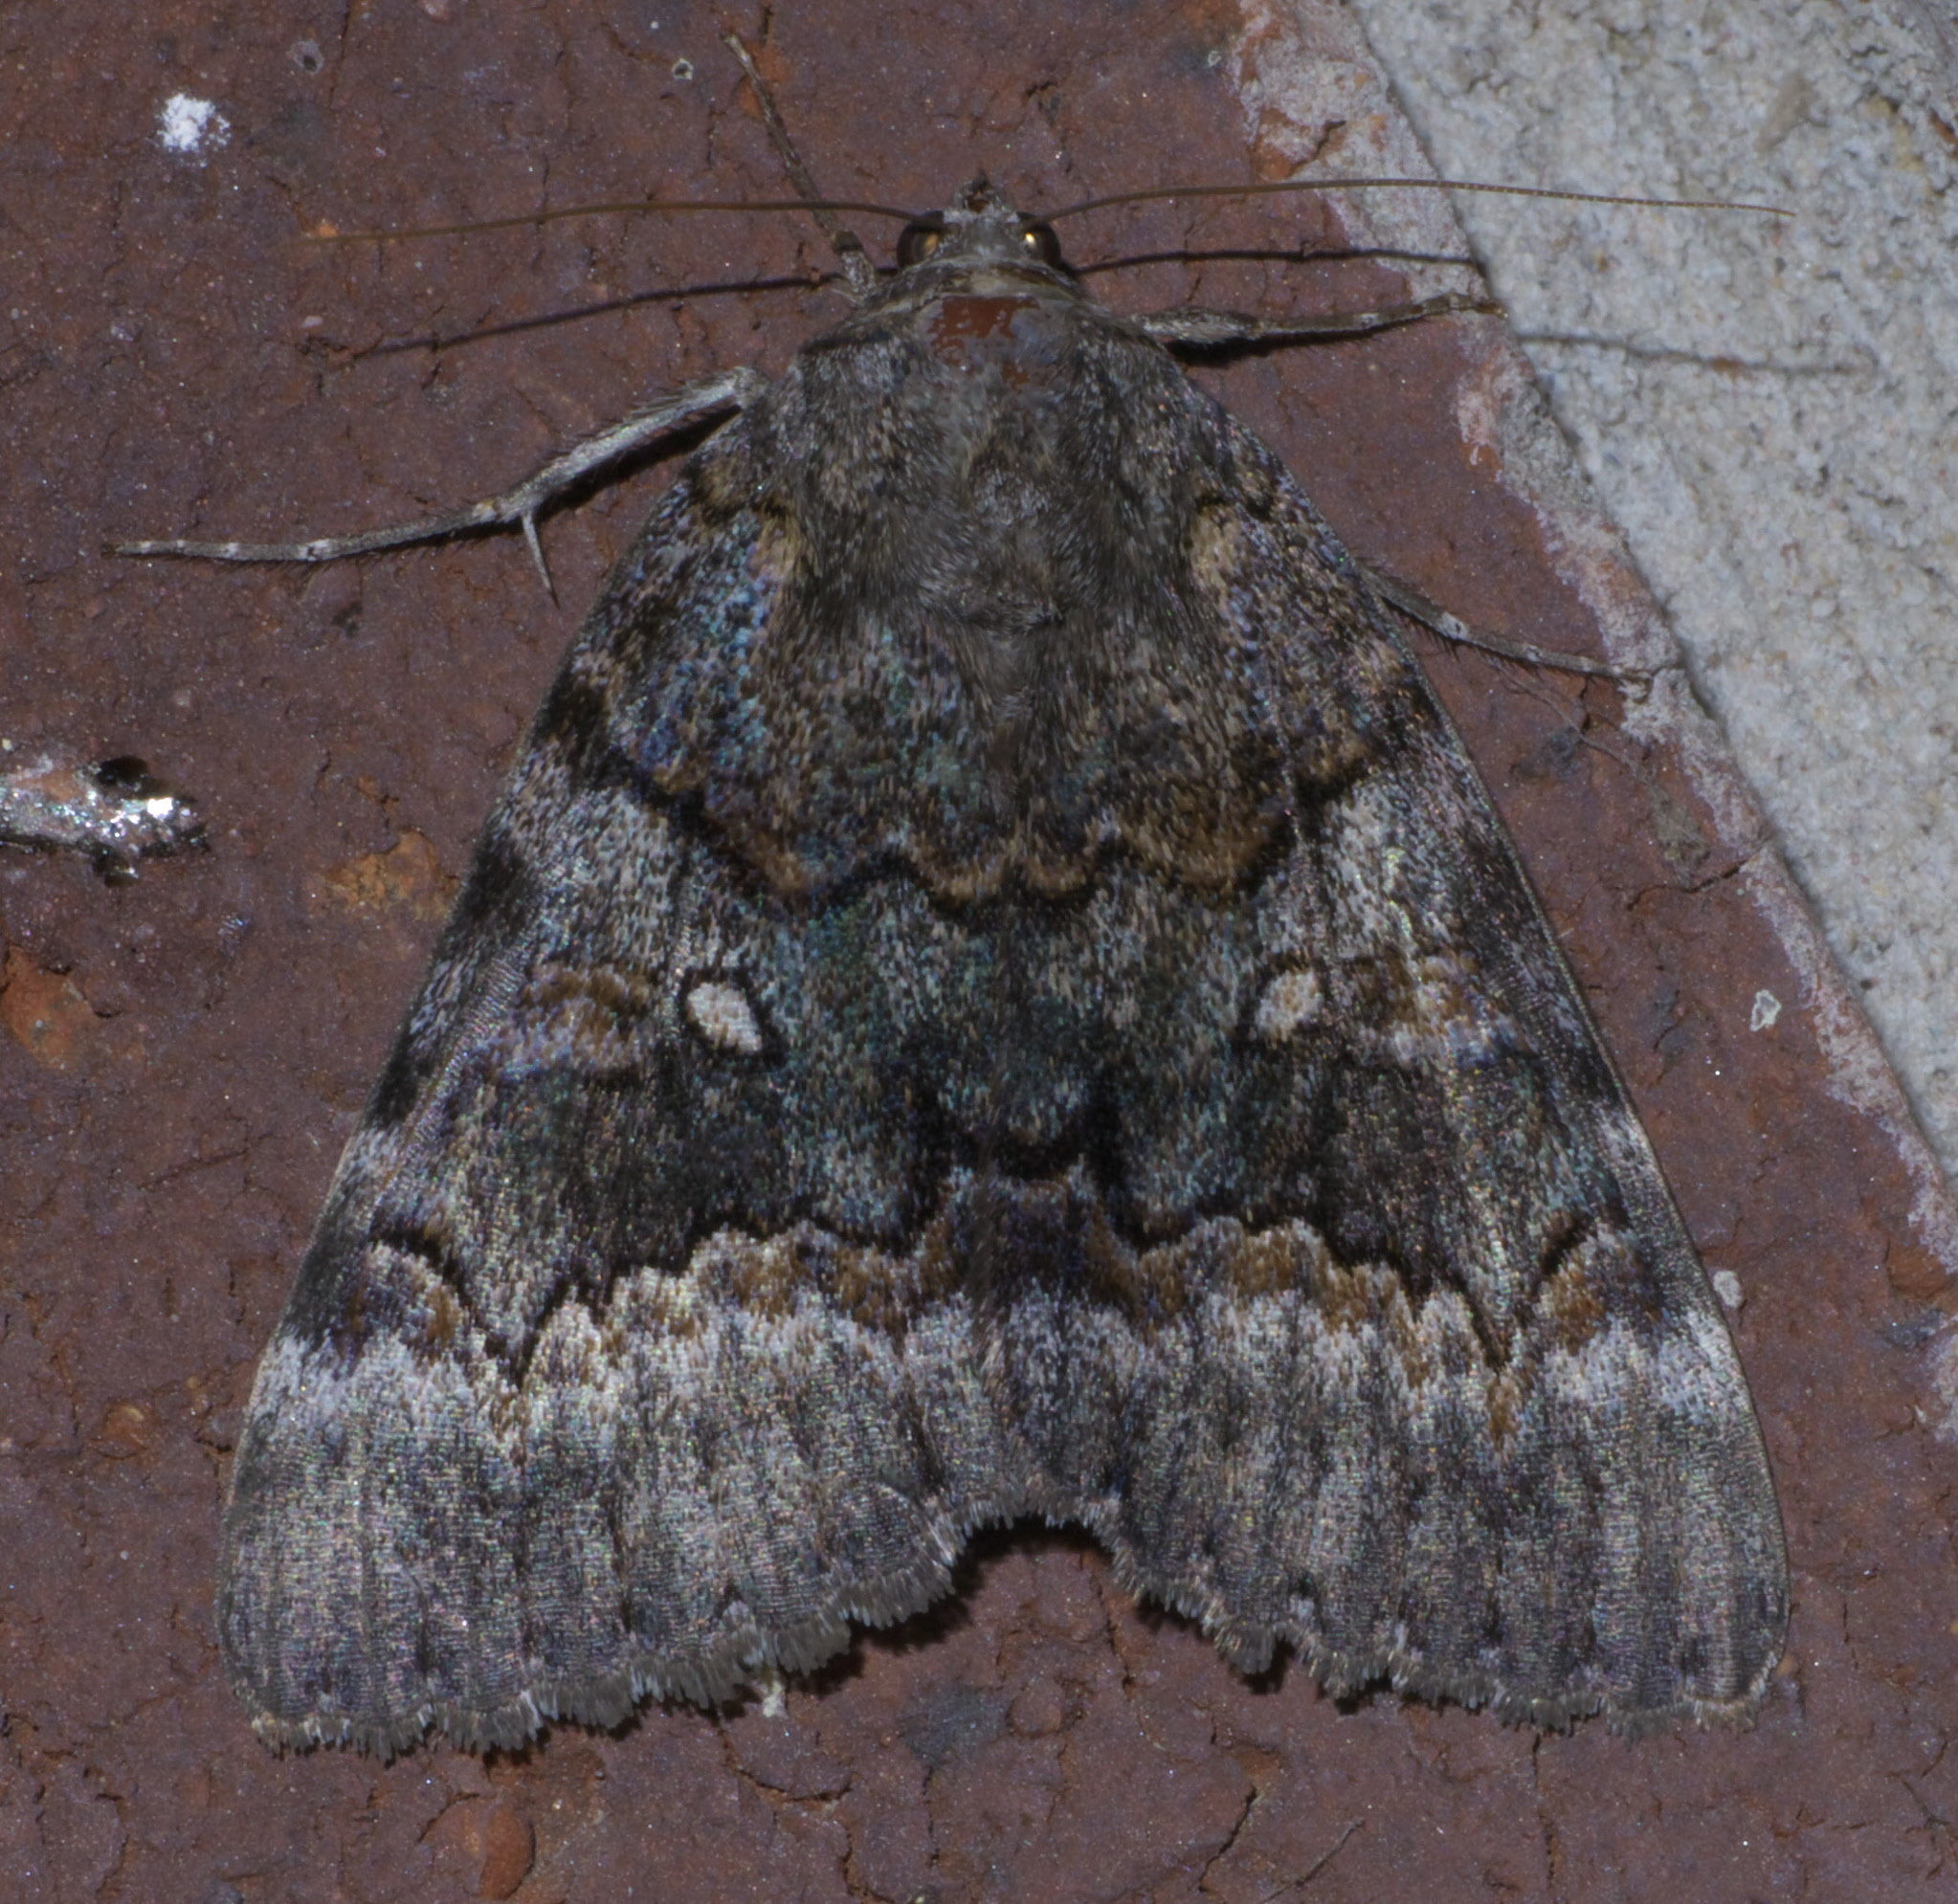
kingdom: Animalia
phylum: Arthropoda
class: Insecta
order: Lepidoptera
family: Erebidae
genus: Catocala
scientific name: Catocala epione
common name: Epione underwing
